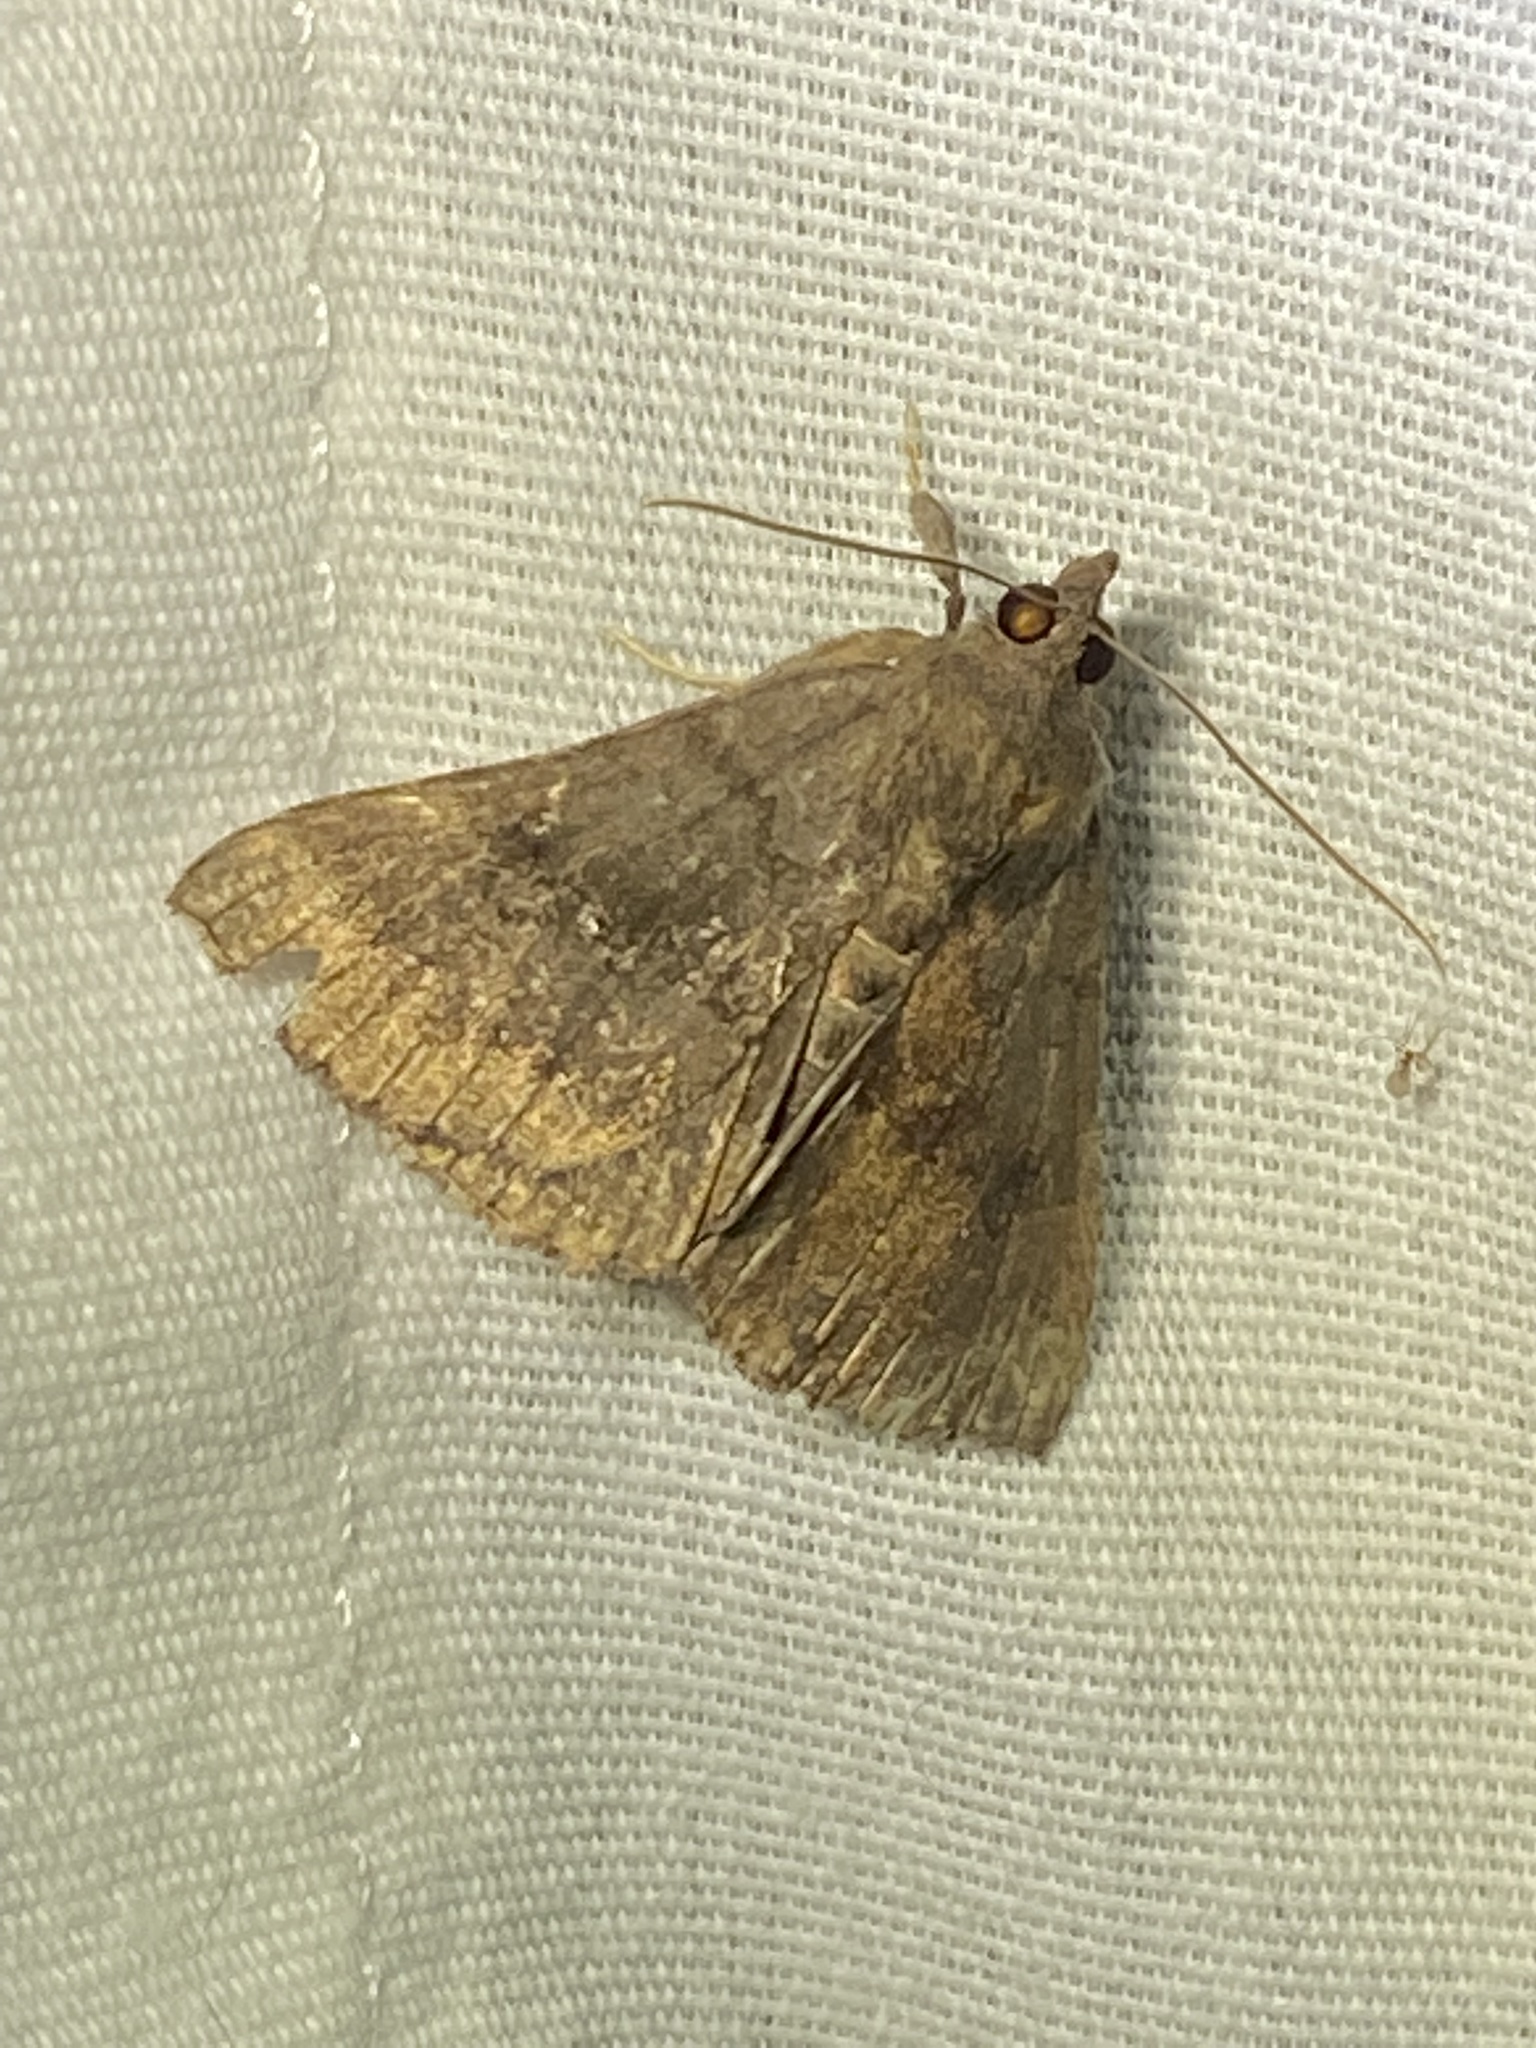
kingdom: Animalia
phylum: Arthropoda
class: Insecta
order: Lepidoptera
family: Erebidae
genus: Hypena
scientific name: Hypena madefactalis
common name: Gray-edged snout
